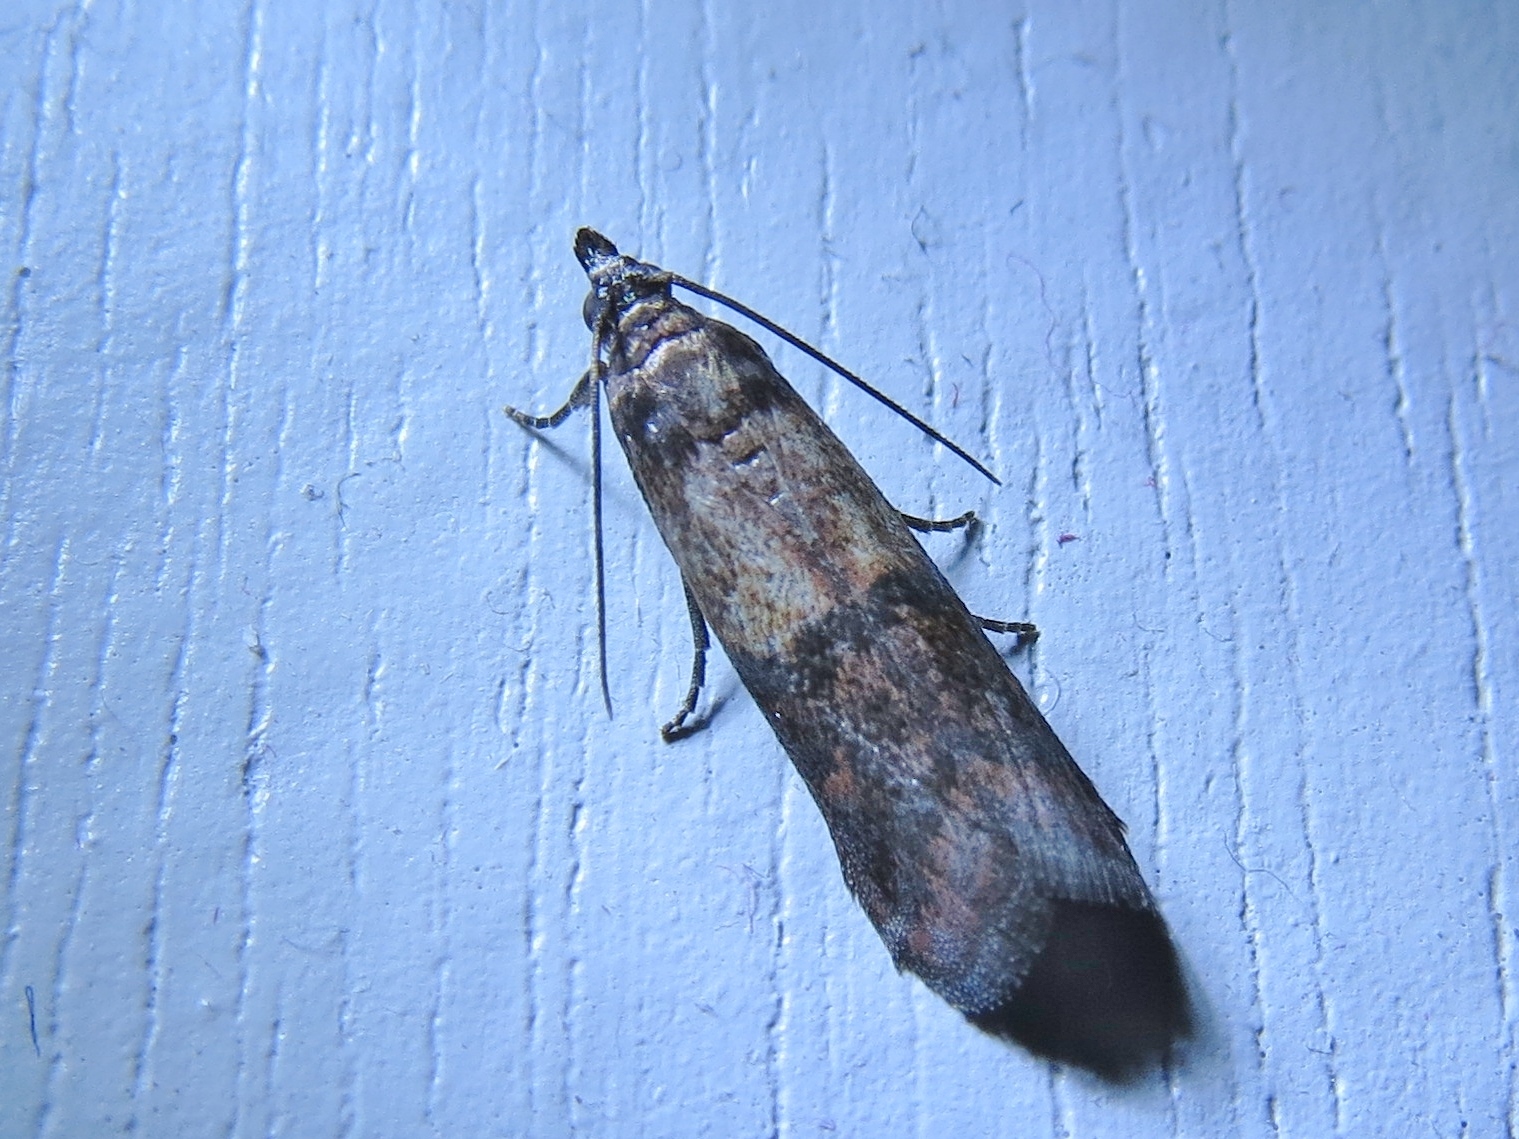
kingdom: Animalia
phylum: Arthropoda
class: Insecta
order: Lepidoptera
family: Pyralidae
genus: Plodia
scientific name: Plodia interpunctella
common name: Indian meal moth
